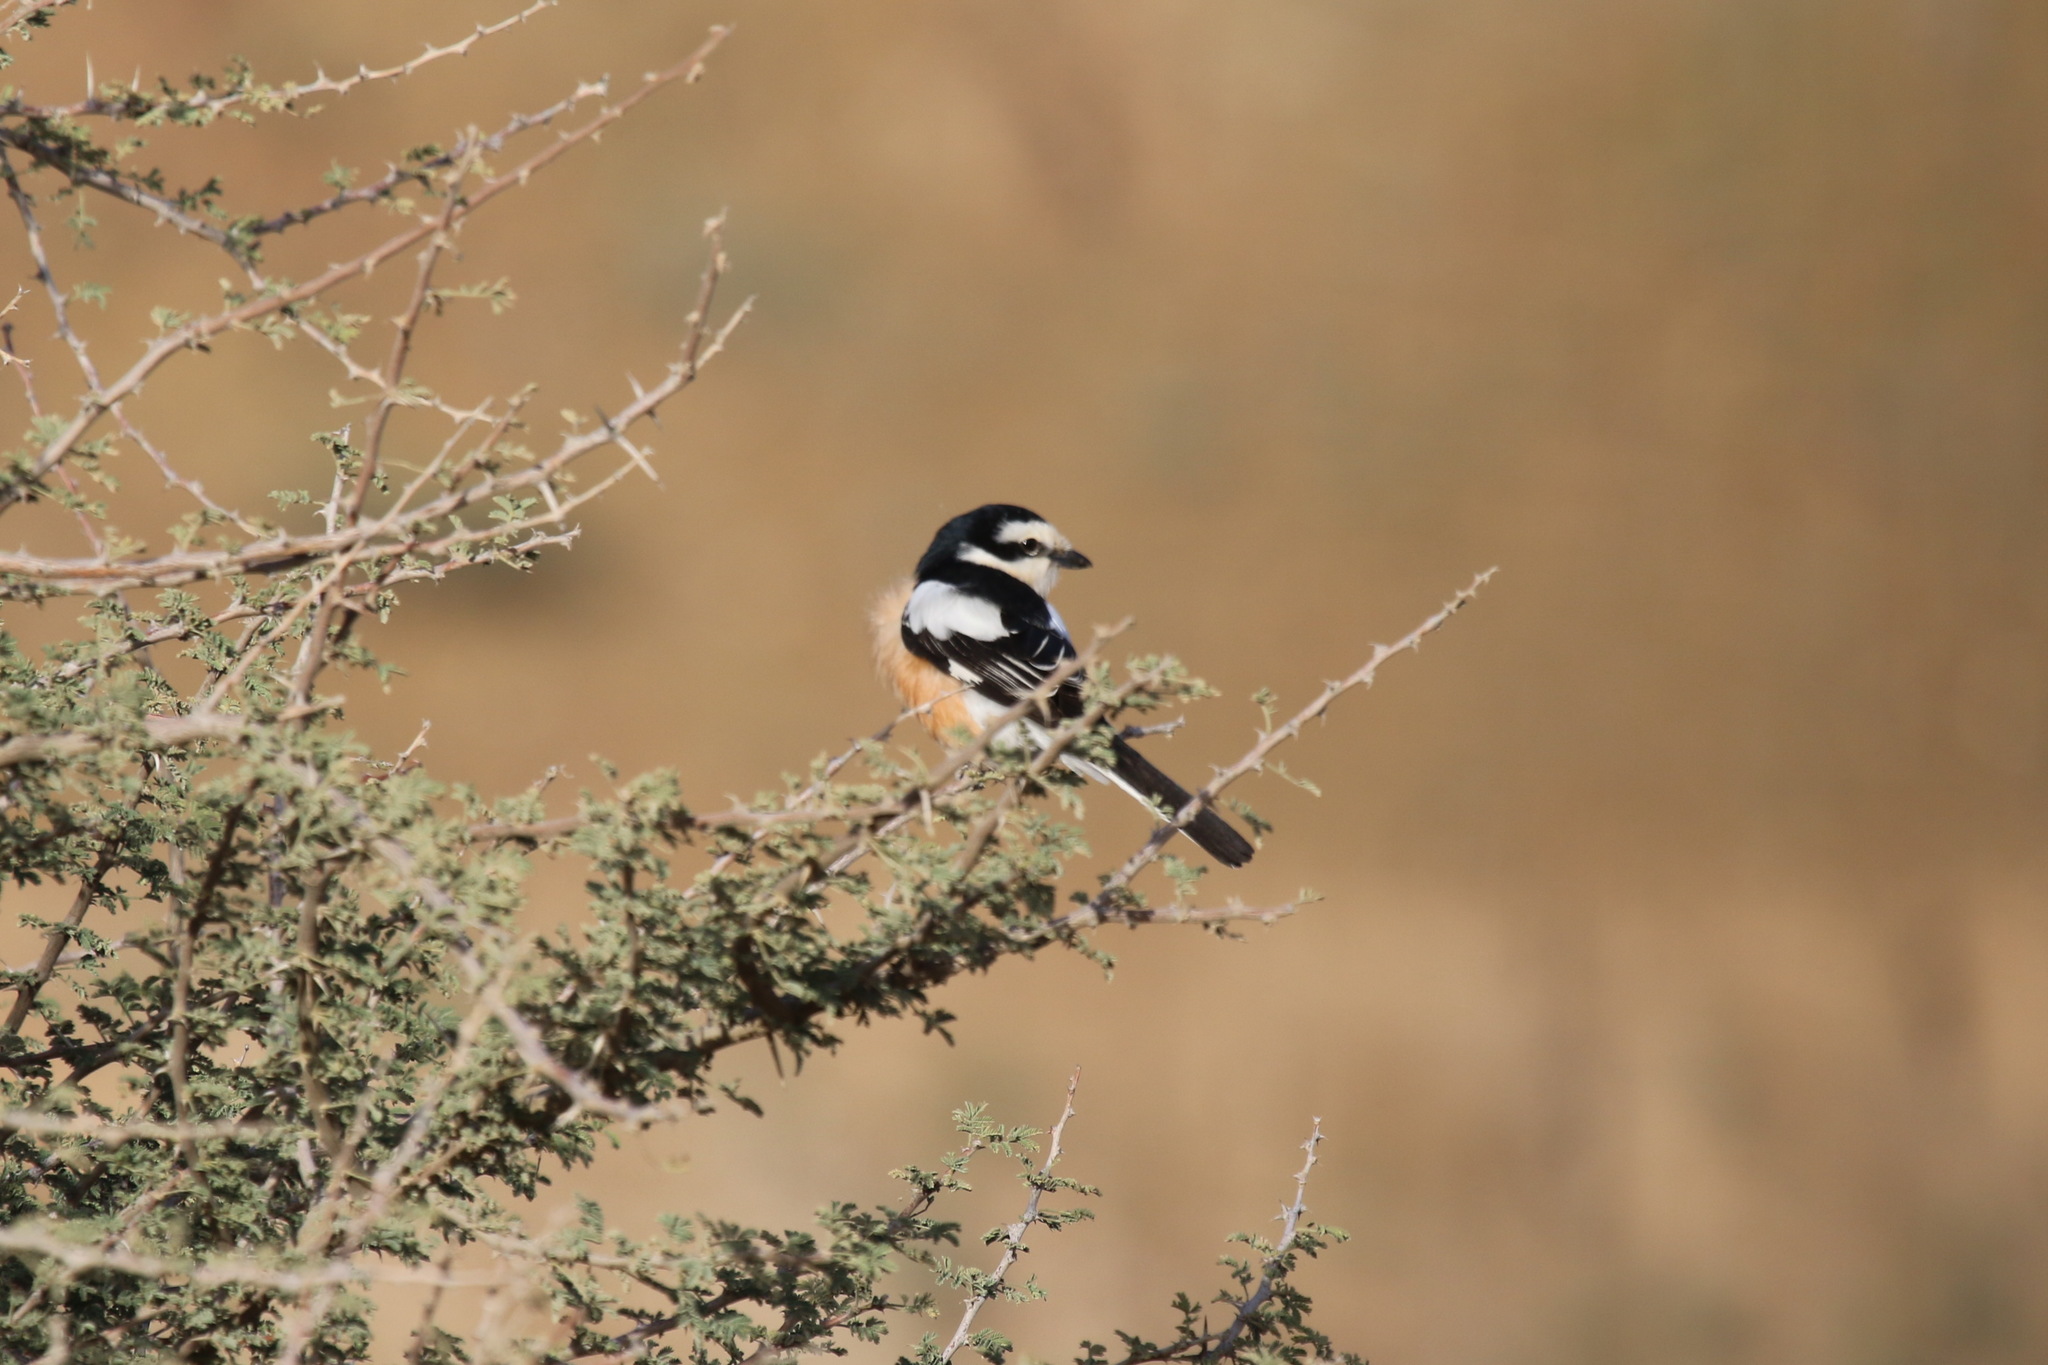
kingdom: Animalia
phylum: Chordata
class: Aves
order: Passeriformes
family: Laniidae
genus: Lanius
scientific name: Lanius nubicus
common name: Masked shrike
